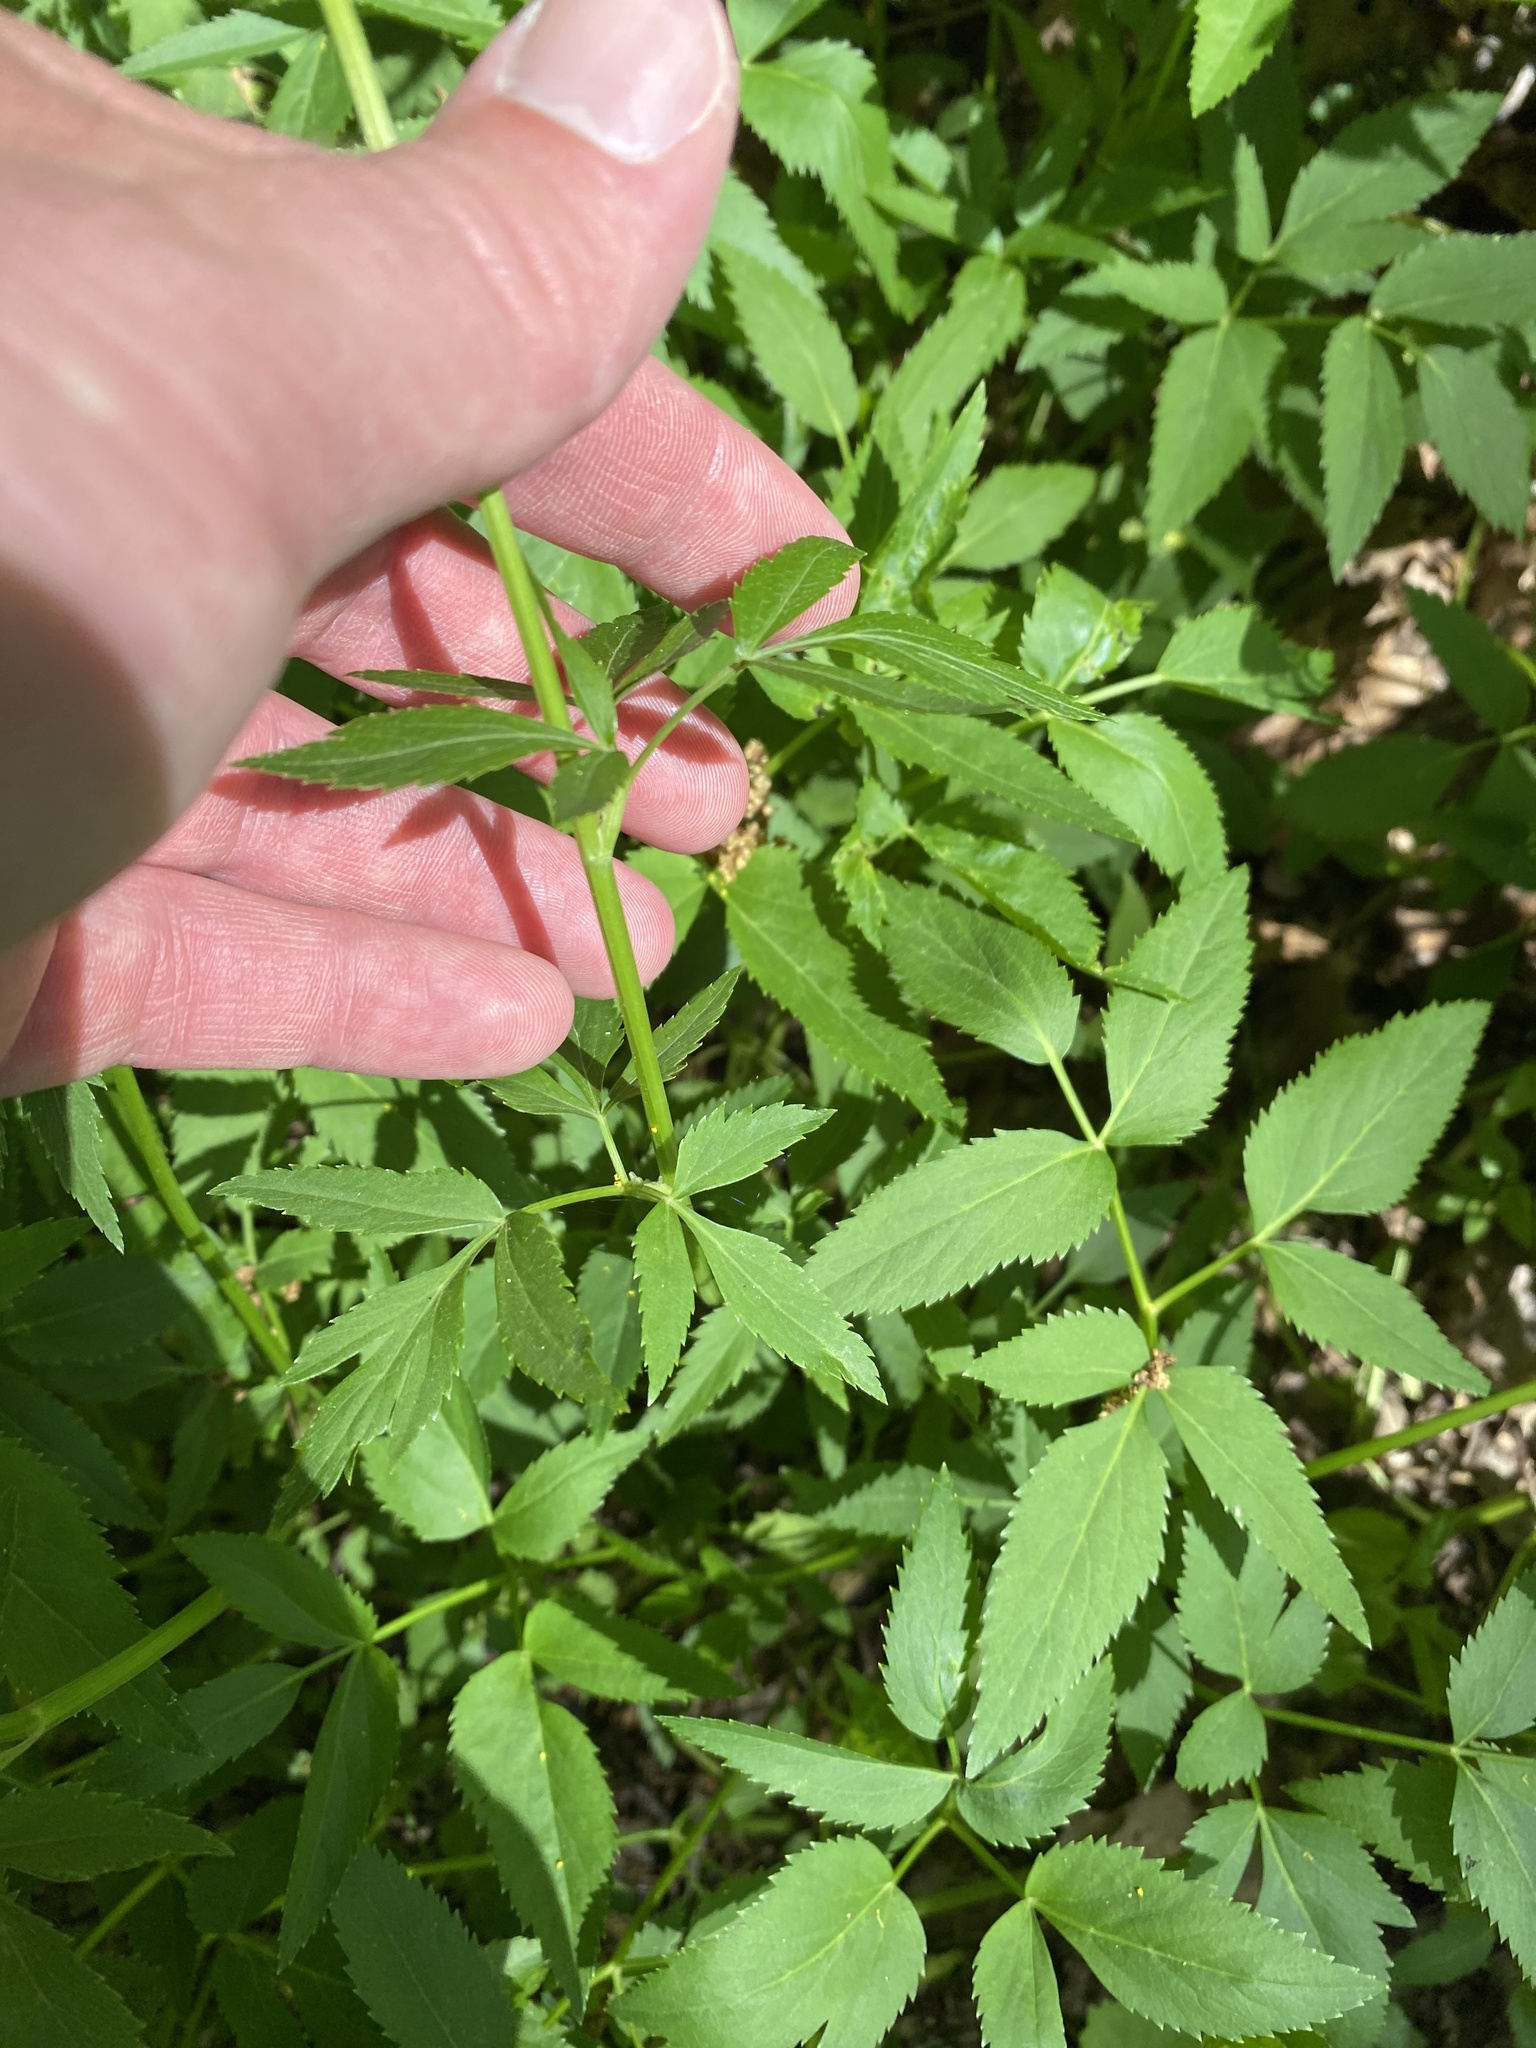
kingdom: Plantae
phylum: Tracheophyta
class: Magnoliopsida
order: Apiales
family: Apiaceae
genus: Zizia
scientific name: Zizia aurea
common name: Golden alexanders
